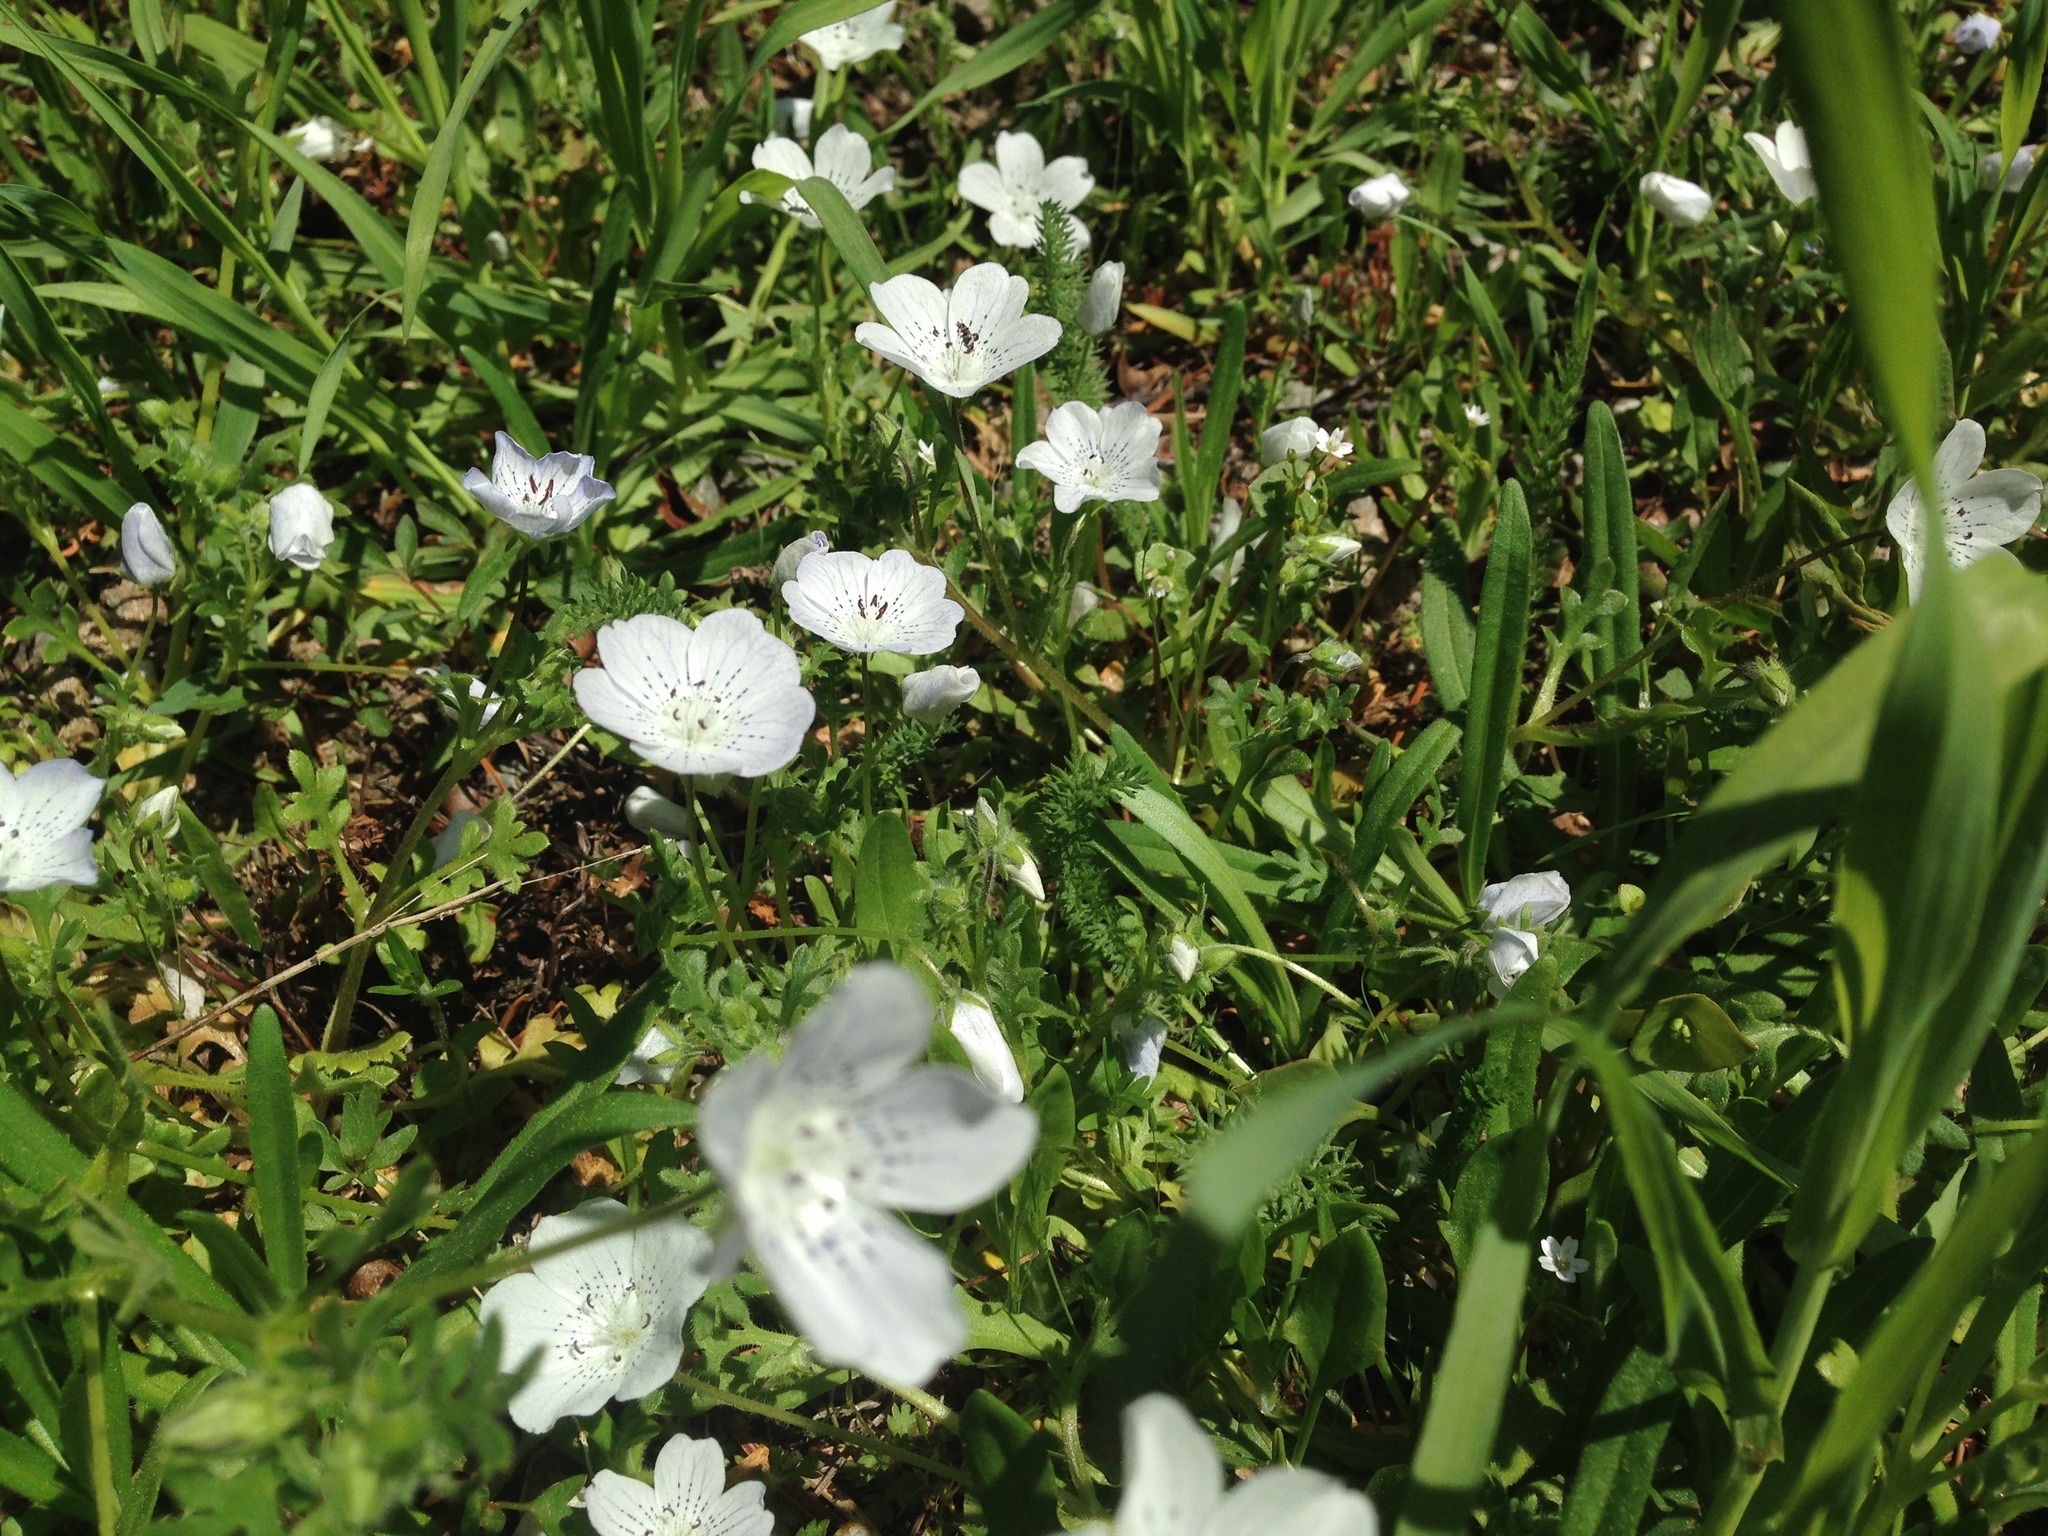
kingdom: Plantae
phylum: Tracheophyta
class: Magnoliopsida
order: Boraginales
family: Hydrophyllaceae
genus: Nemophila
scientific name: Nemophila menziesii
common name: Baby's-blue-eyes
